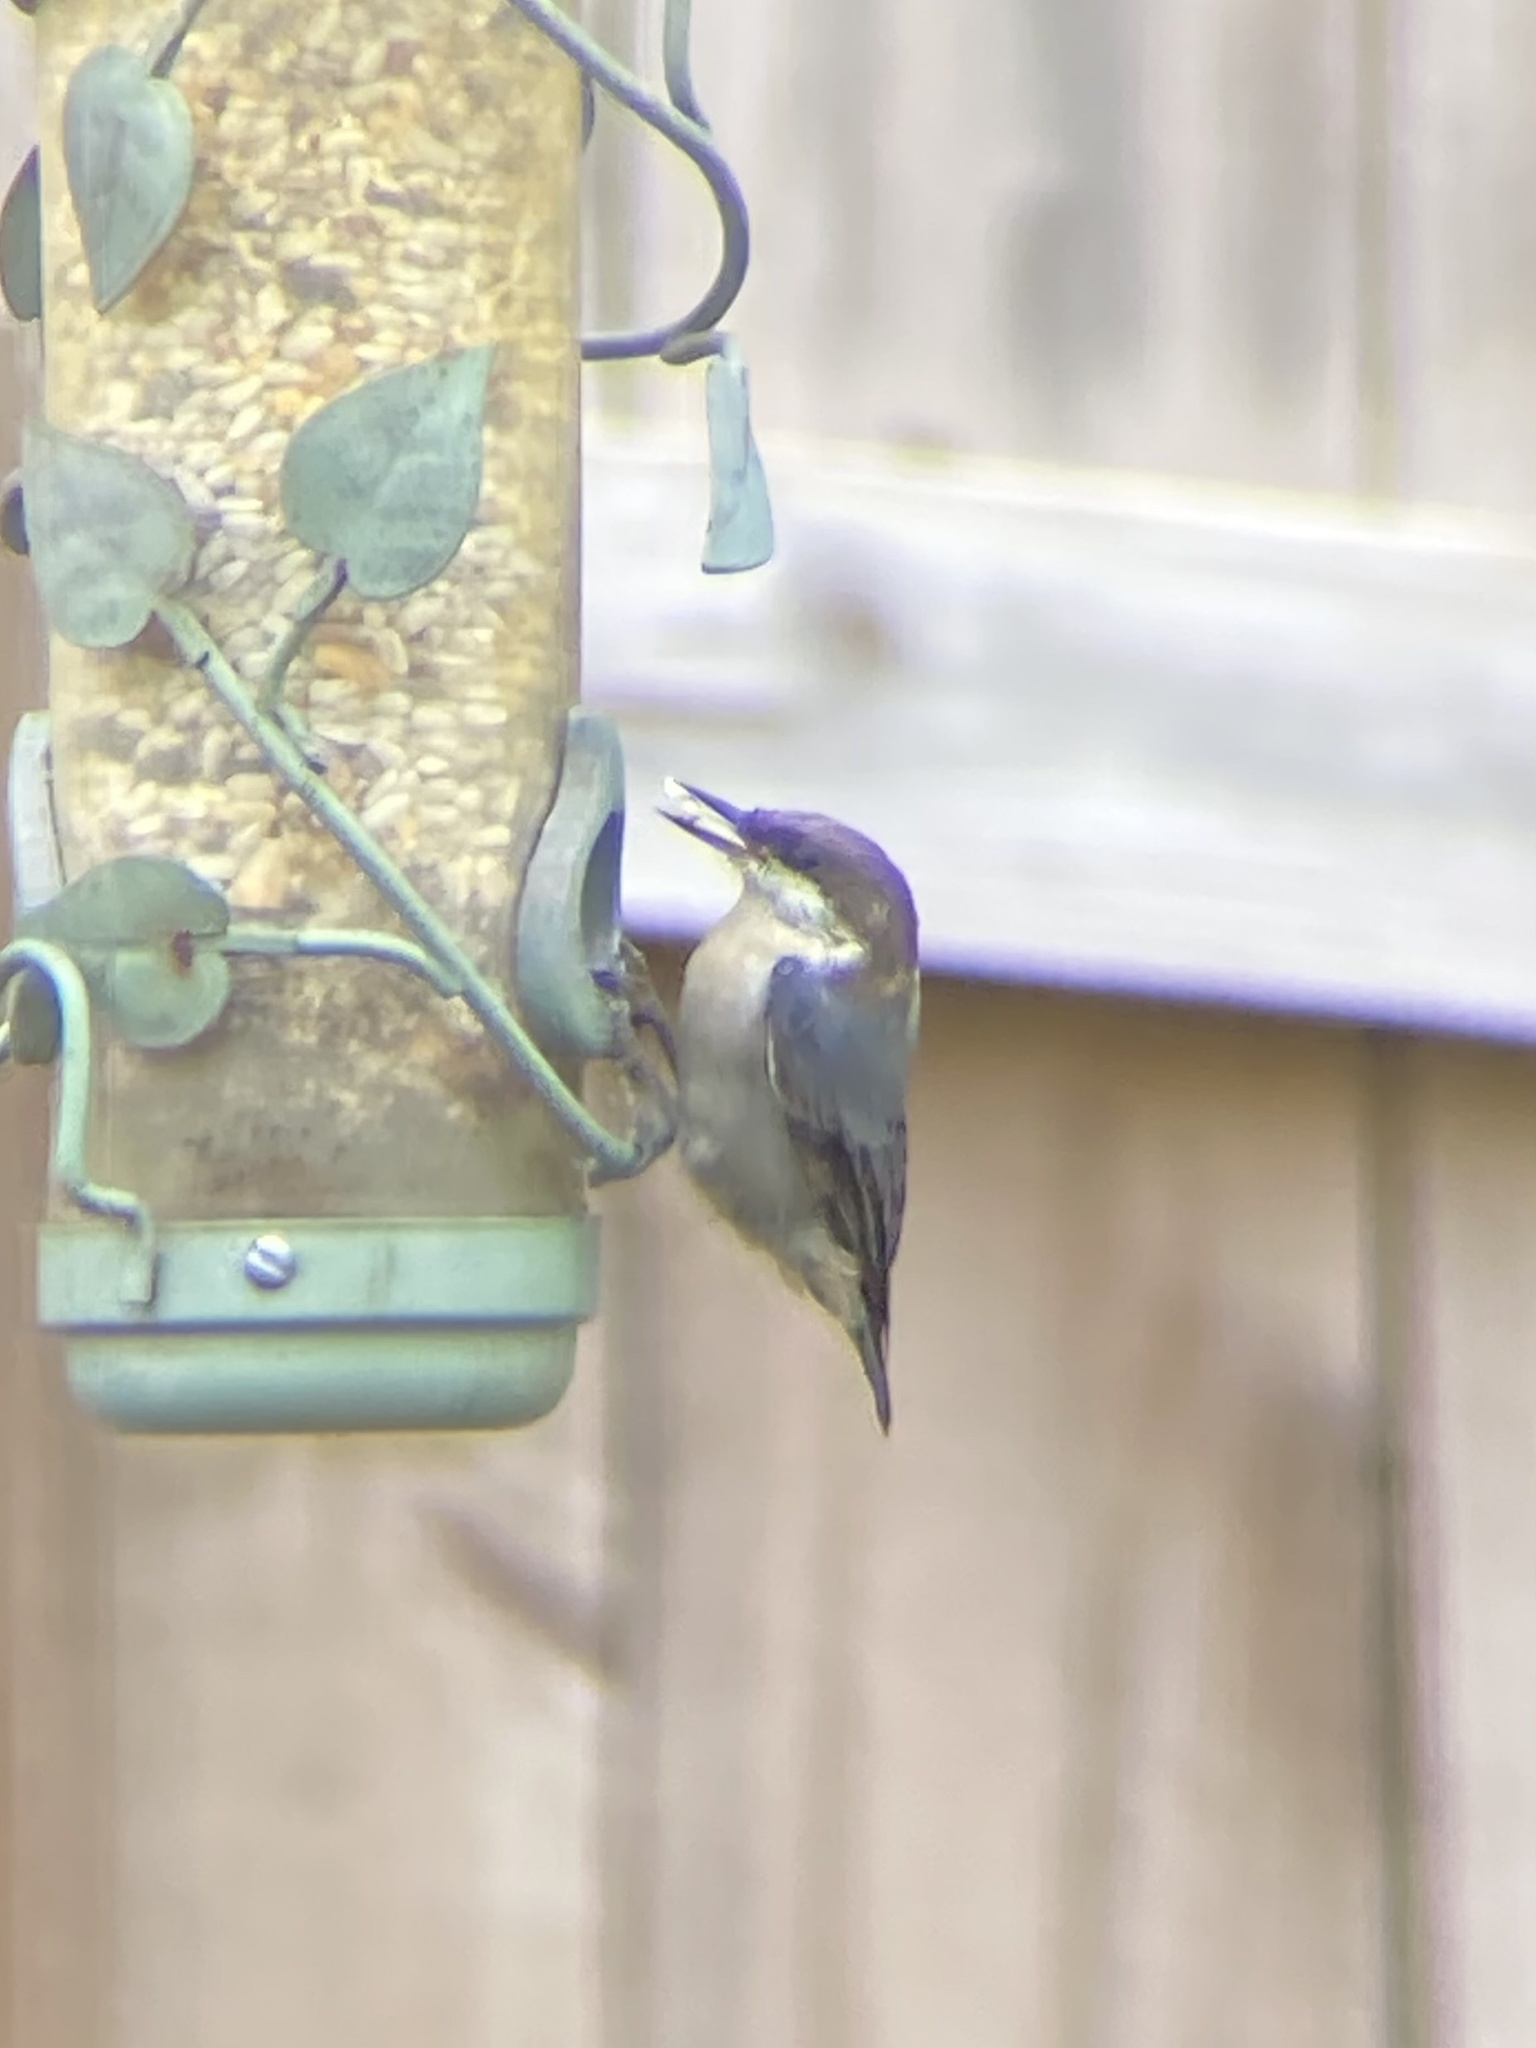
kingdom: Animalia
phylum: Chordata
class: Aves
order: Passeriformes
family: Sittidae
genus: Sitta
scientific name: Sitta pusilla
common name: Brown-headed nuthatch
